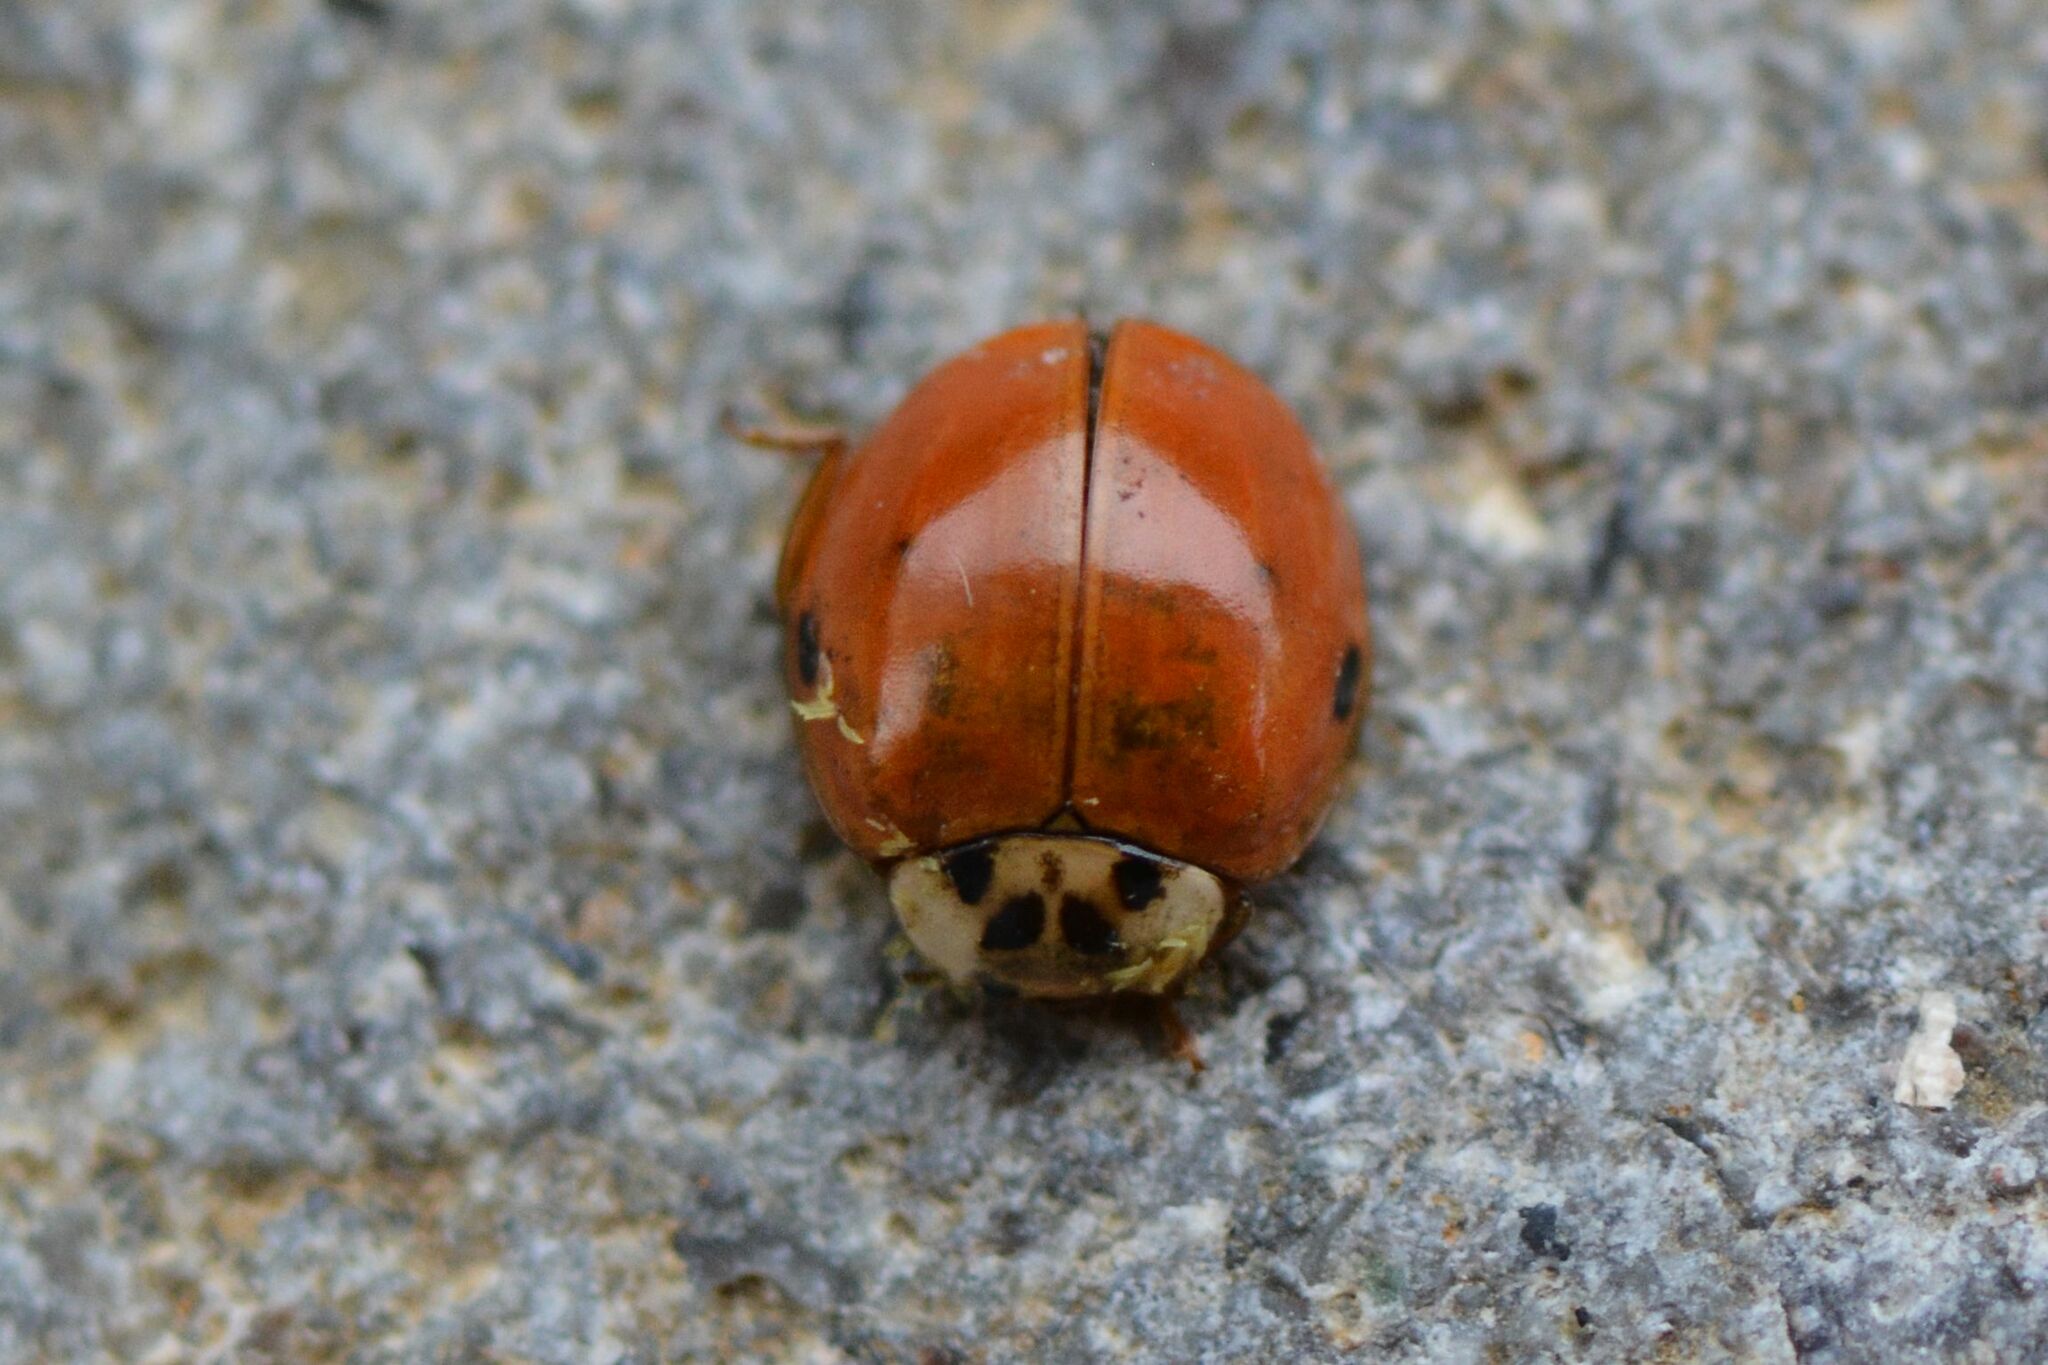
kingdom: Animalia
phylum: Arthropoda
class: Insecta
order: Coleoptera
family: Coccinellidae
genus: Harmonia
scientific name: Harmonia axyridis
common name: Harlequin ladybird
